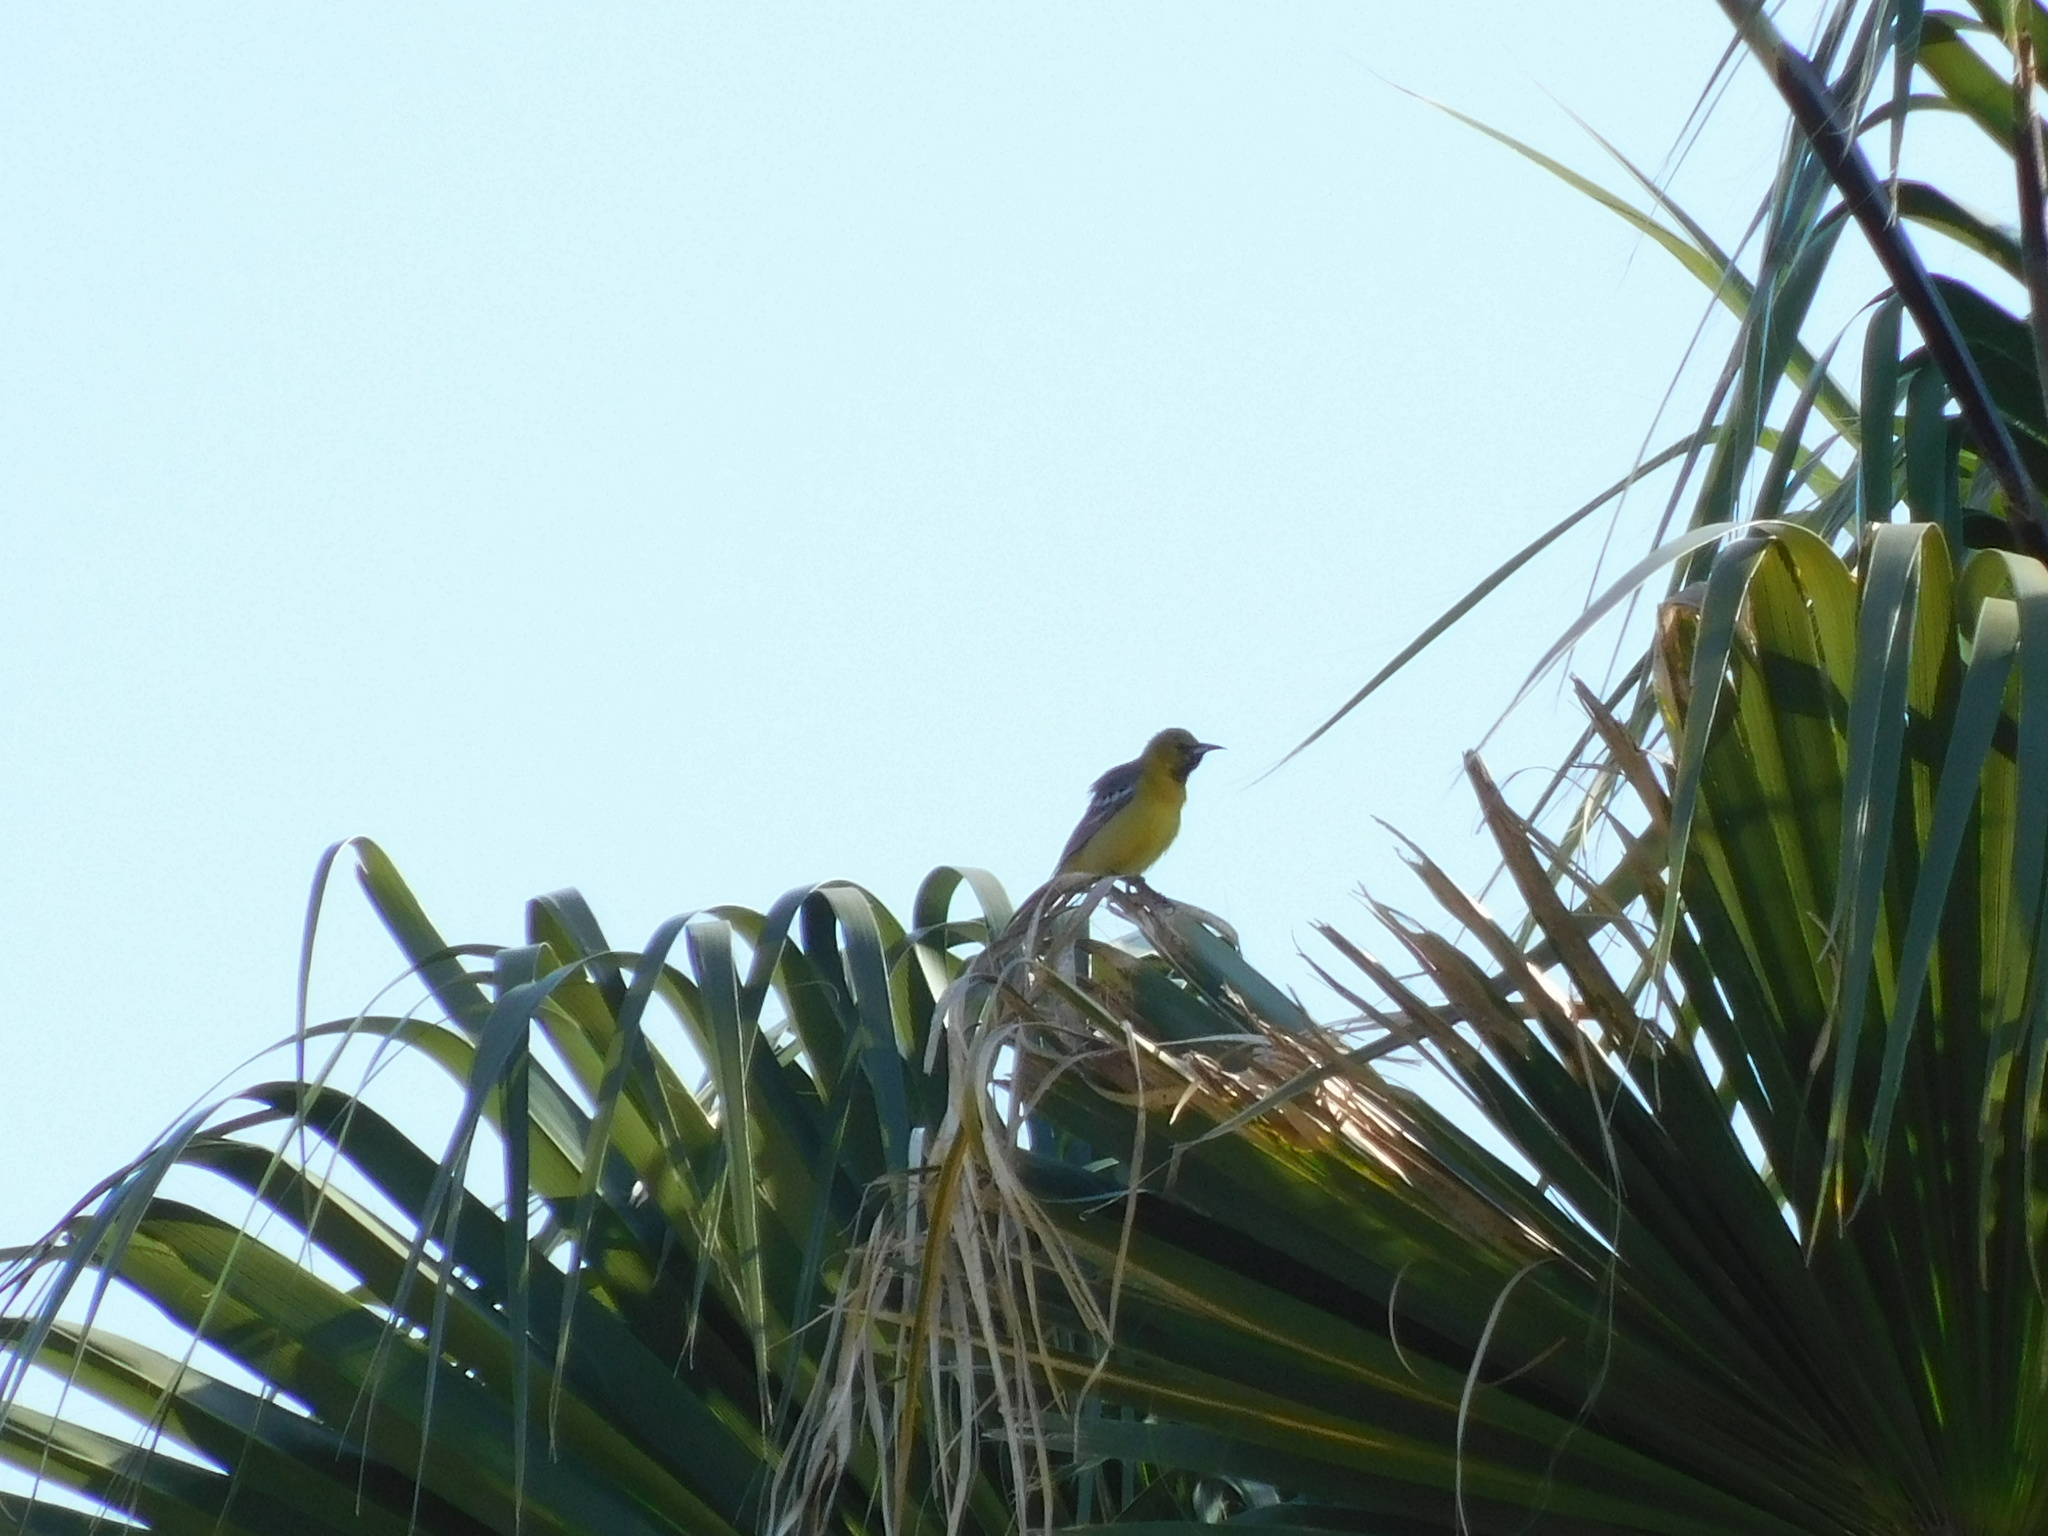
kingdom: Animalia
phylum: Chordata
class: Aves
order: Passeriformes
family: Icteridae
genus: Icterus
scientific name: Icterus cucullatus
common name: Hooded oriole
